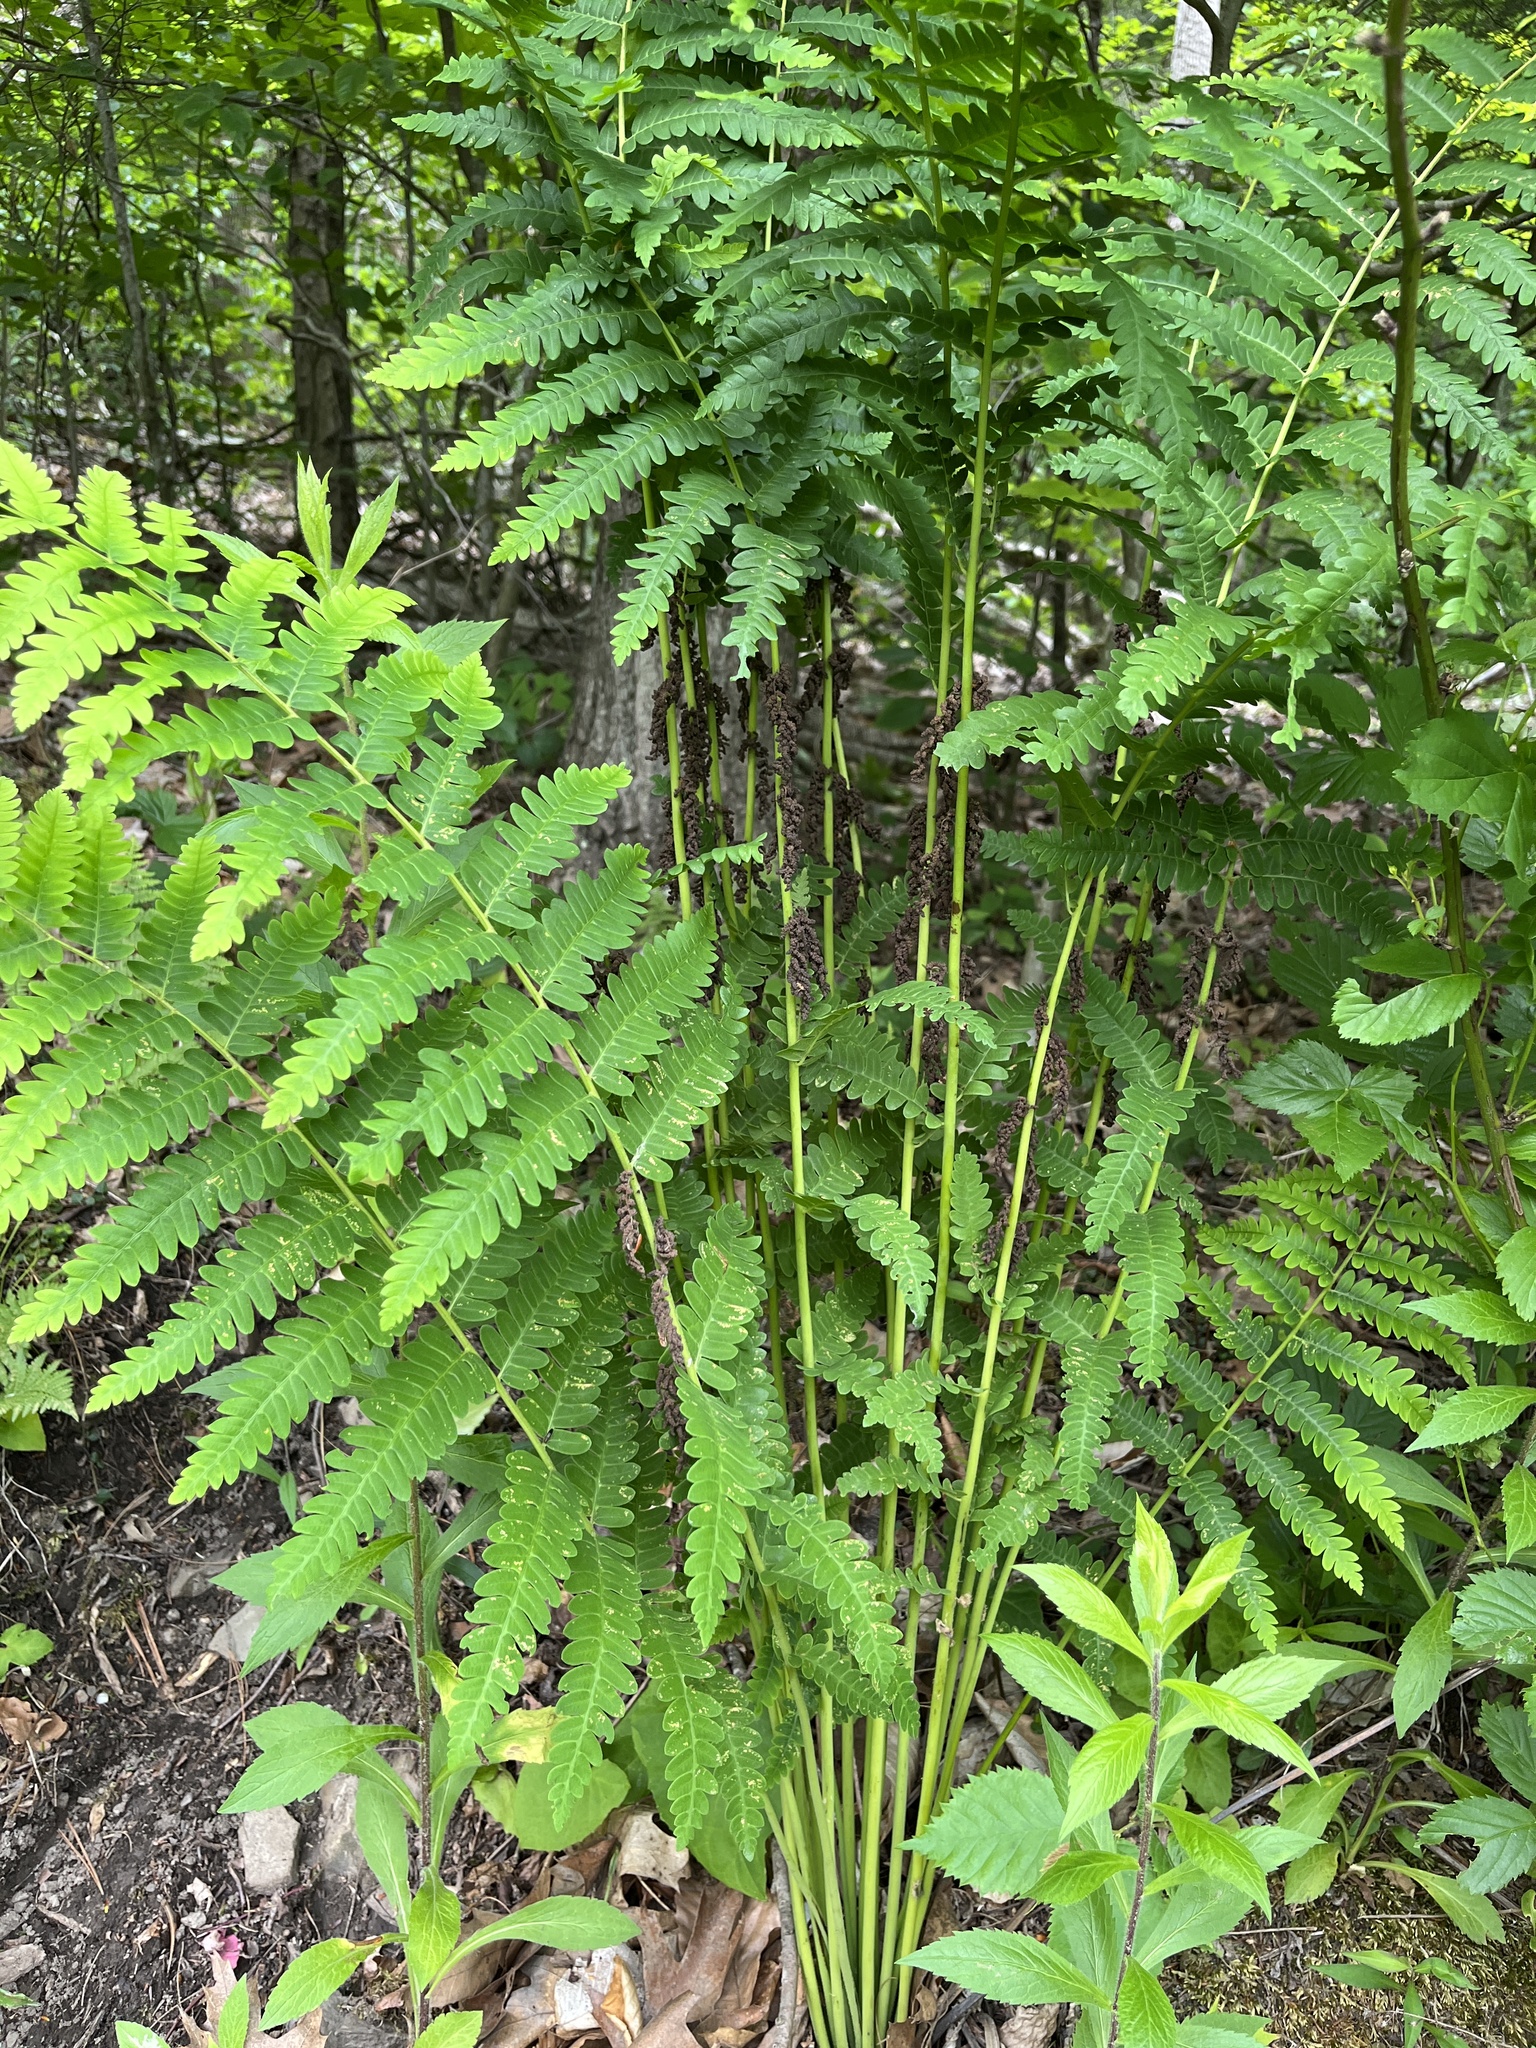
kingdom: Plantae
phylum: Tracheophyta
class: Polypodiopsida
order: Osmundales
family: Osmundaceae
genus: Claytosmunda
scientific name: Claytosmunda claytoniana
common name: Clayton's fern
